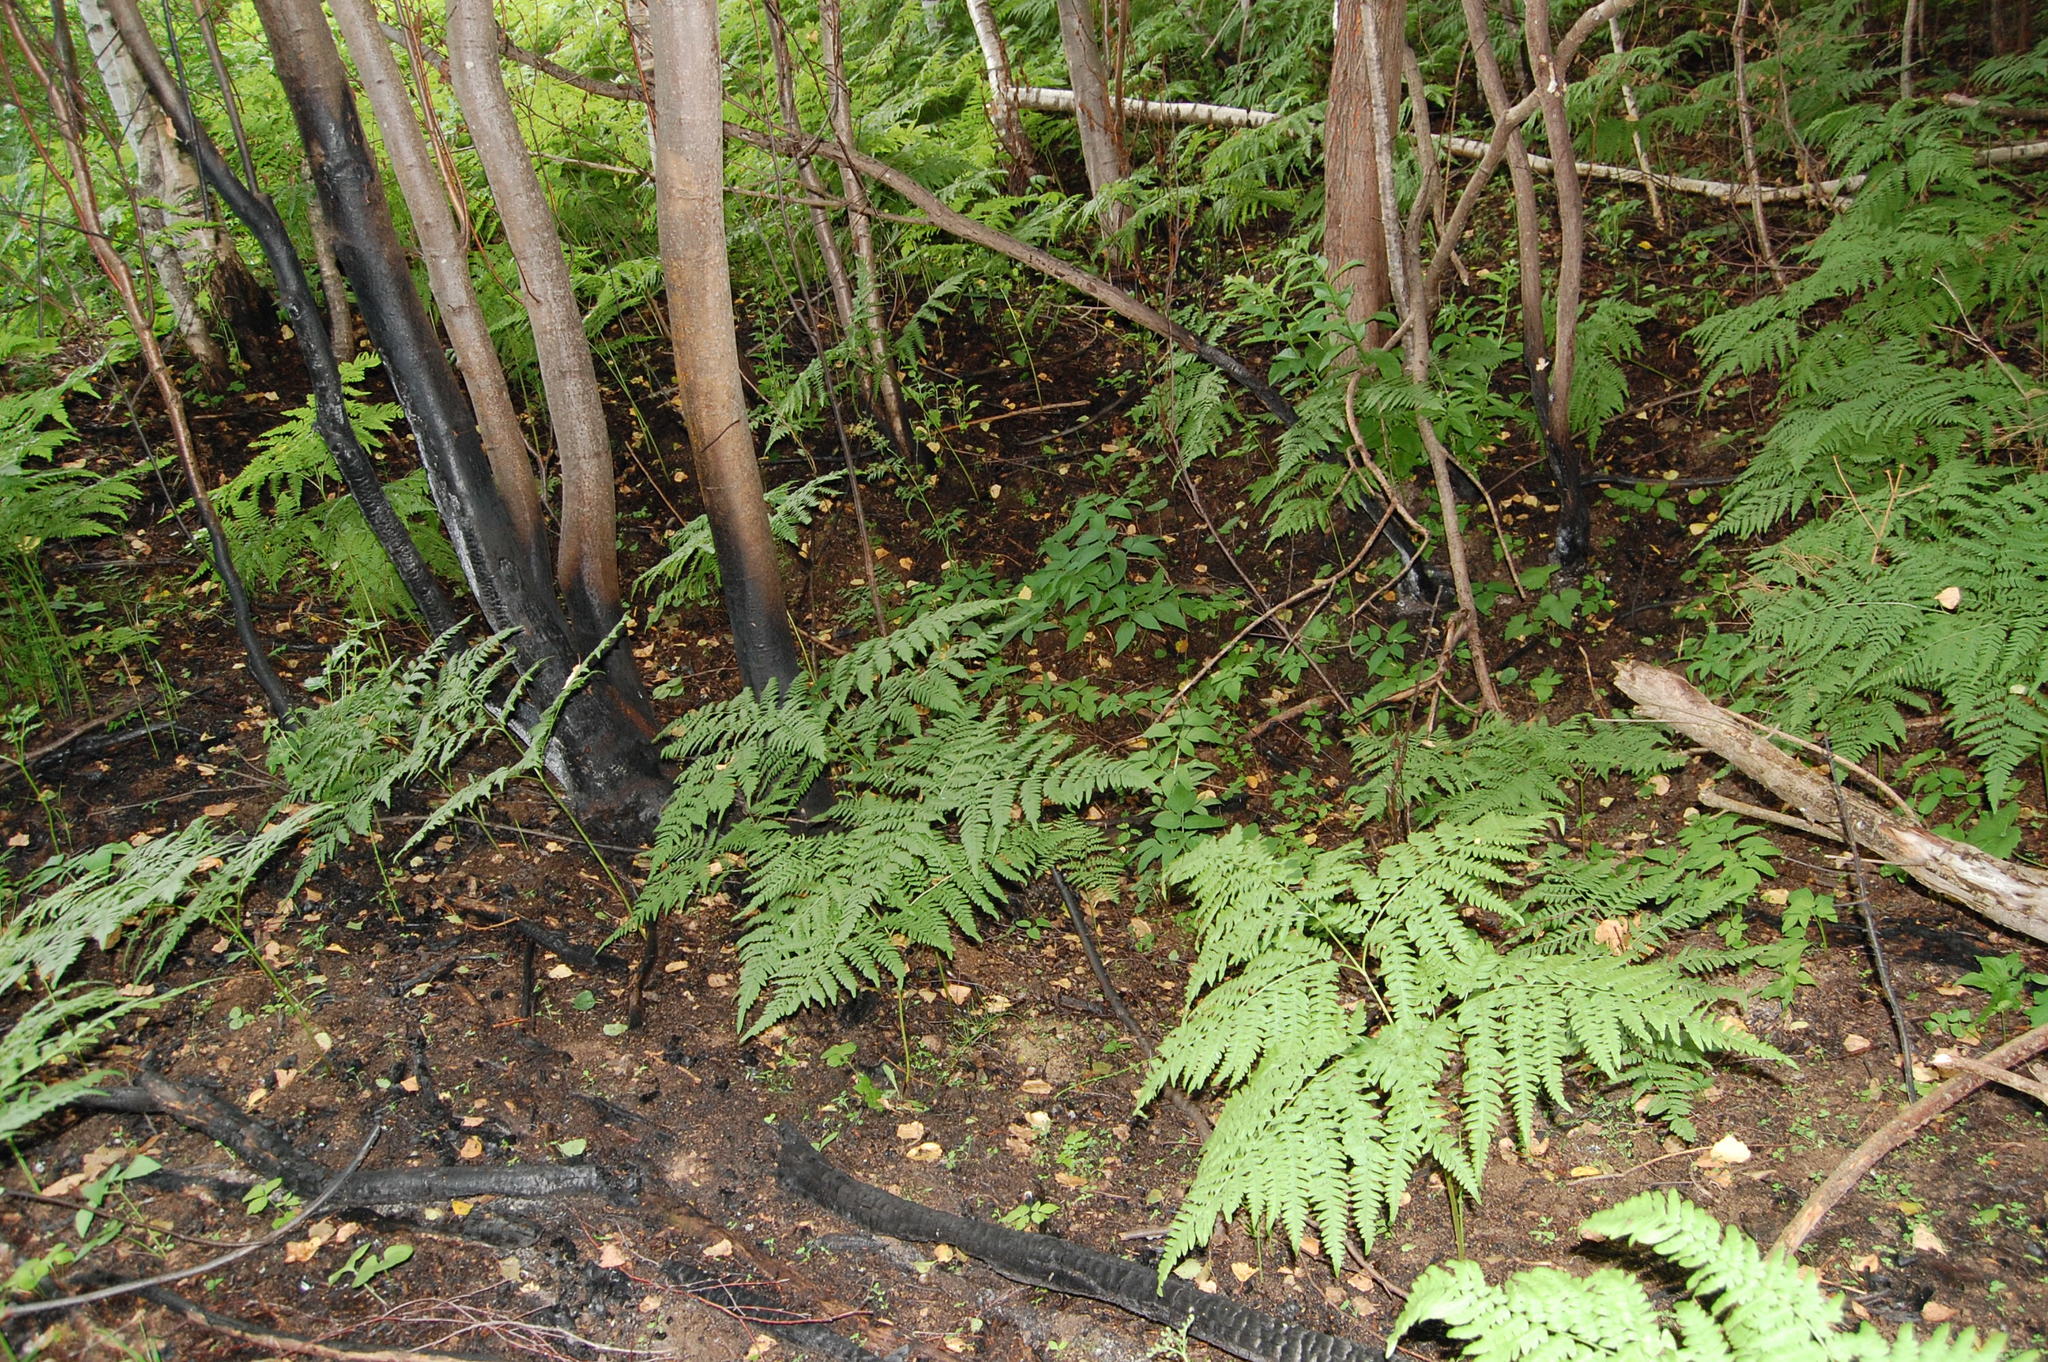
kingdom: Plantae
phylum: Tracheophyta
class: Polypodiopsida
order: Polypodiales
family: Dennstaedtiaceae
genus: Pteridium
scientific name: Pteridium aquilinum
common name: Bracken
